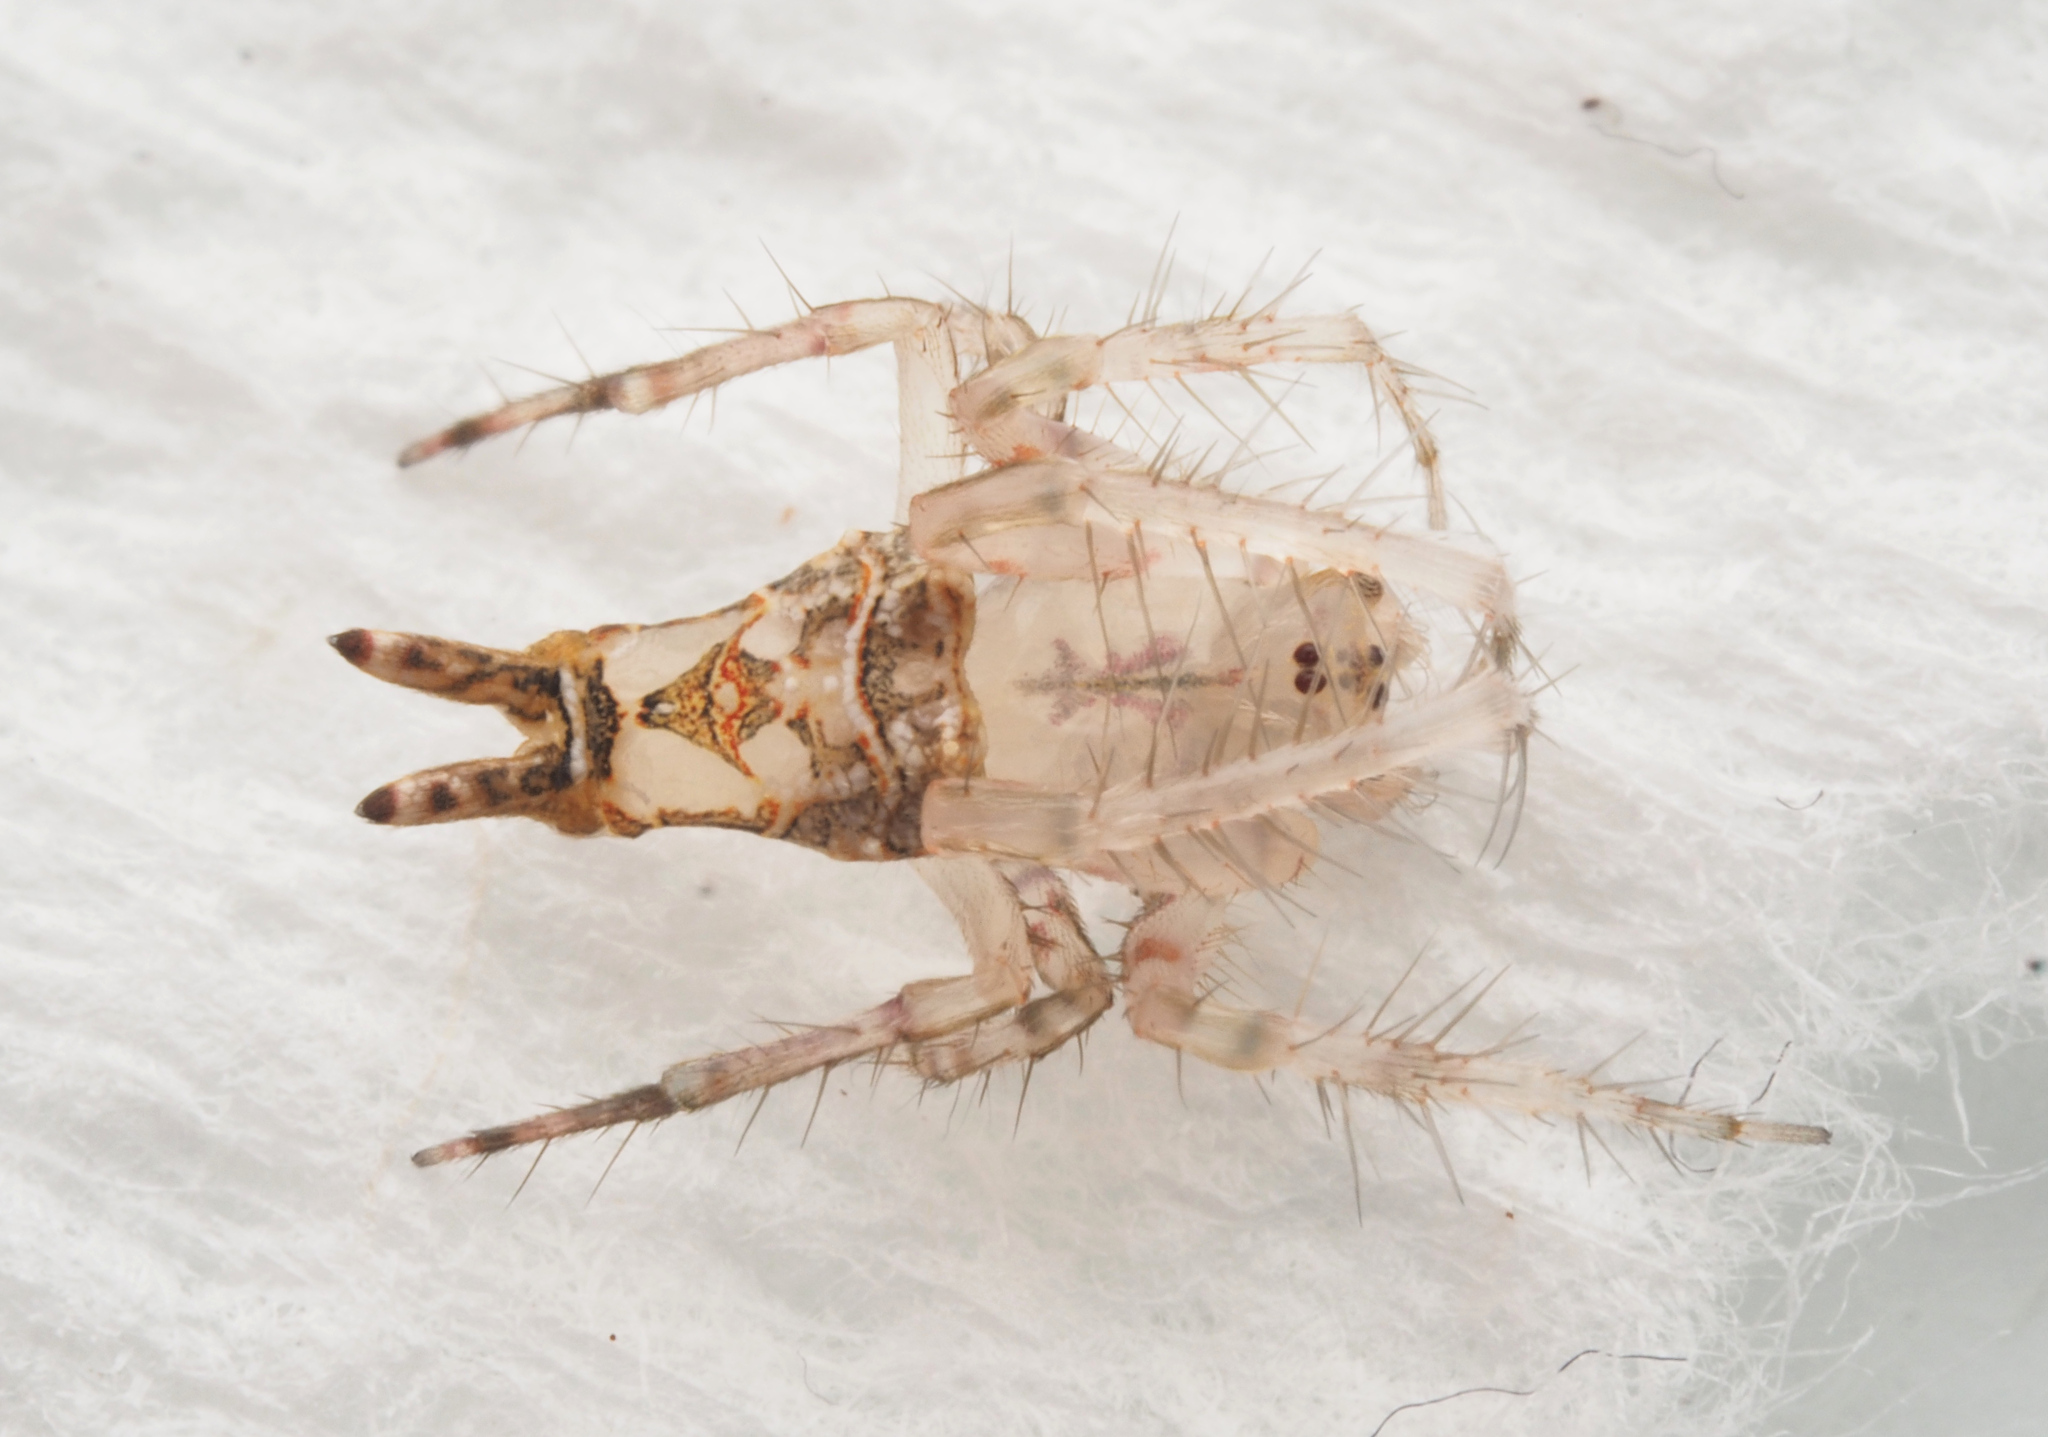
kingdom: Animalia
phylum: Arthropoda
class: Arachnida
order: Araneae
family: Arkyidae
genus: Arkys
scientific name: Arkys furcatus
